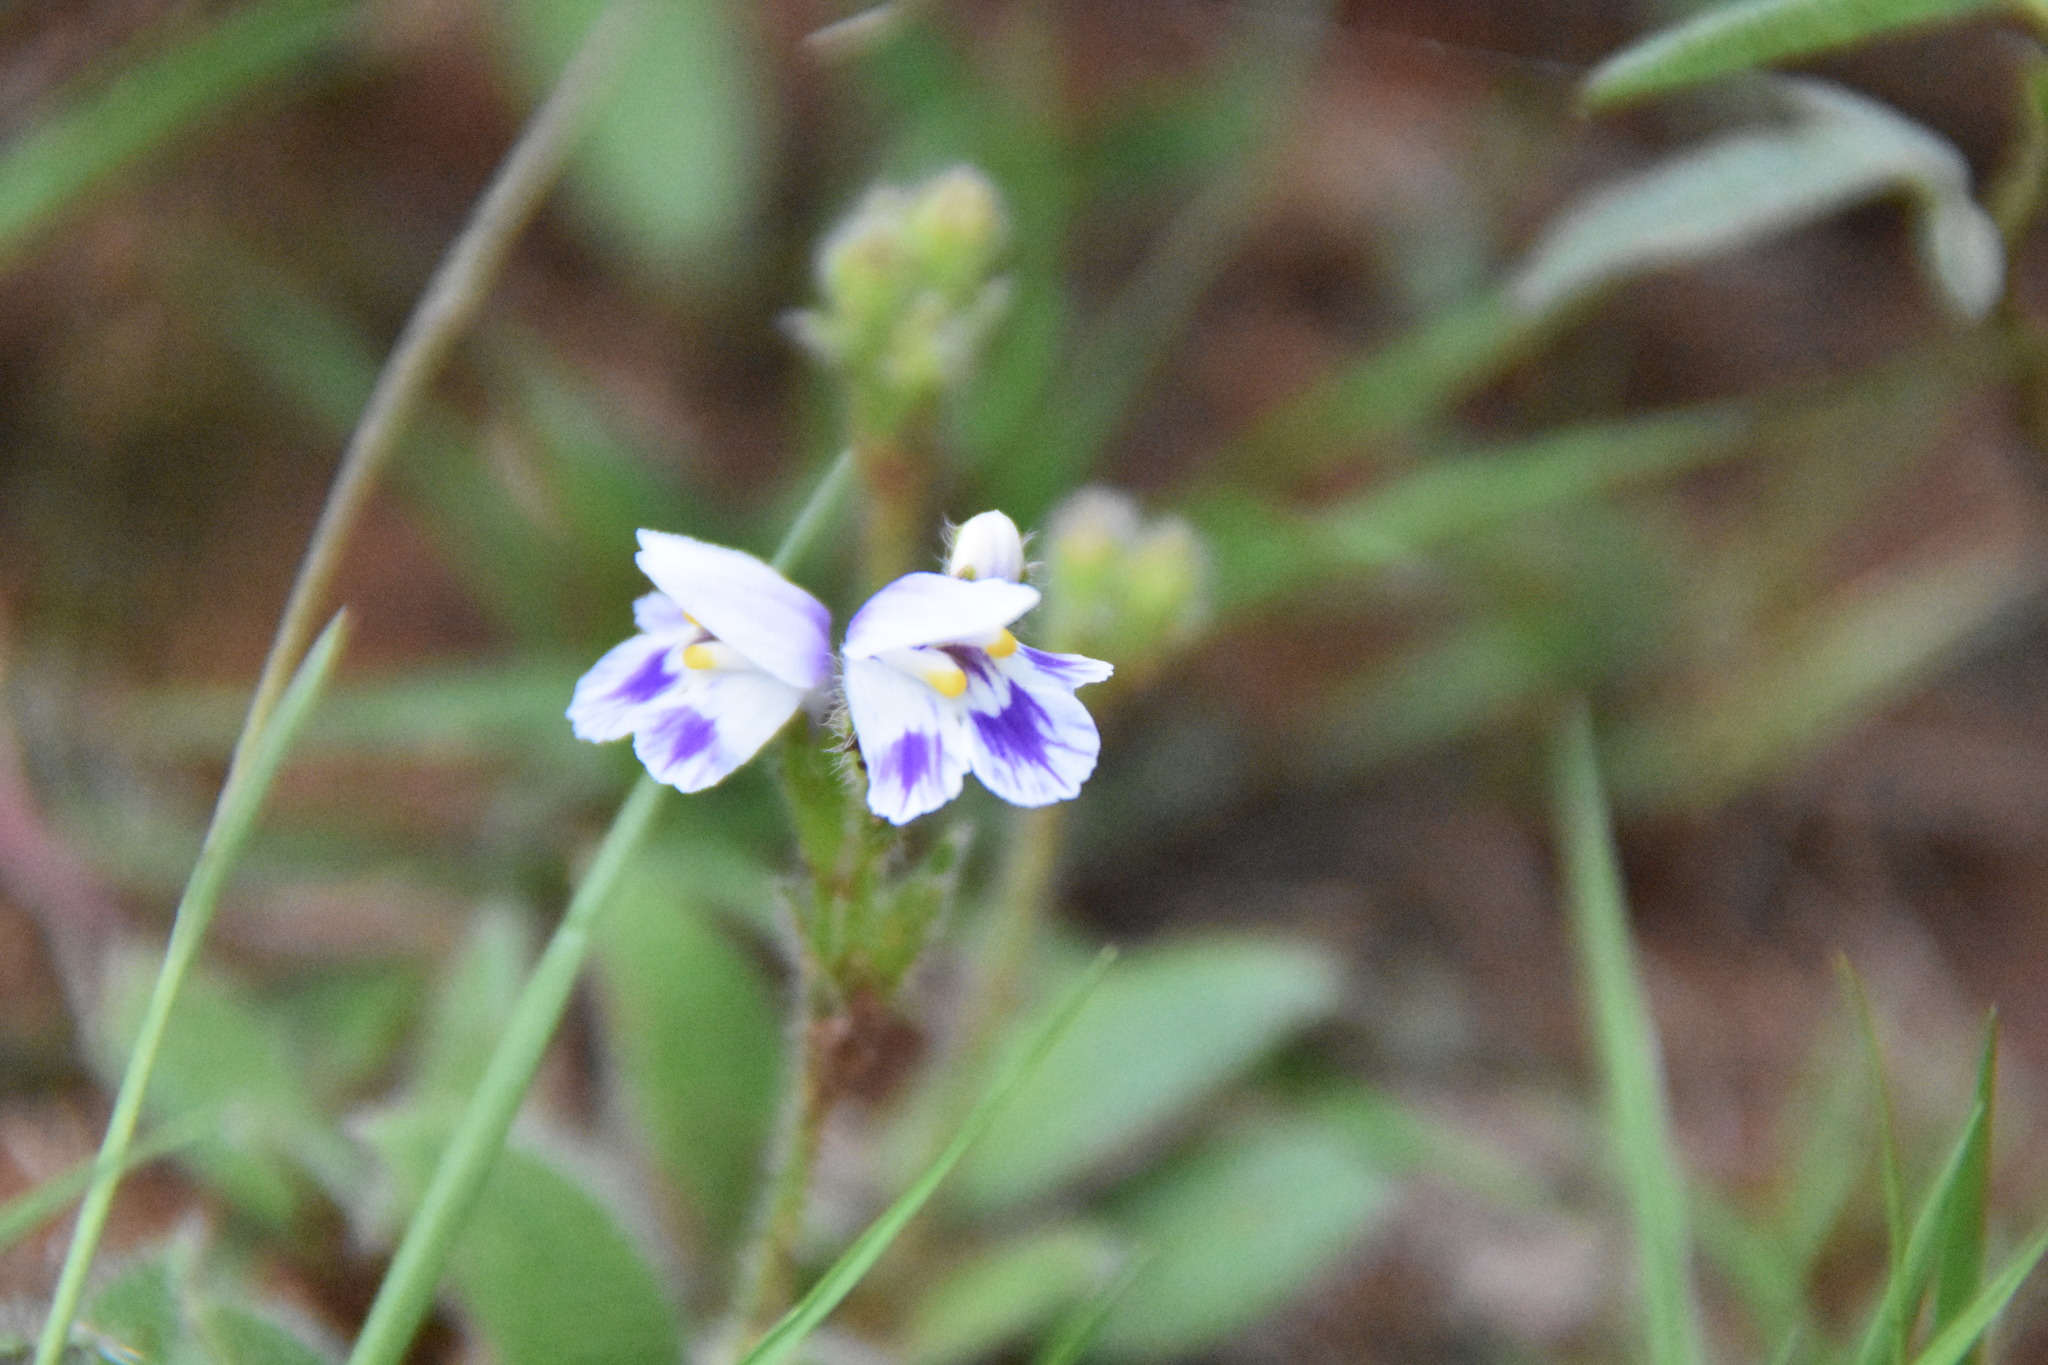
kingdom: Plantae
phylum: Tracheophyta
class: Magnoliopsida
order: Lamiales
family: Linderniaceae
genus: Craterostigma
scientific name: Craterostigma hirsutum
